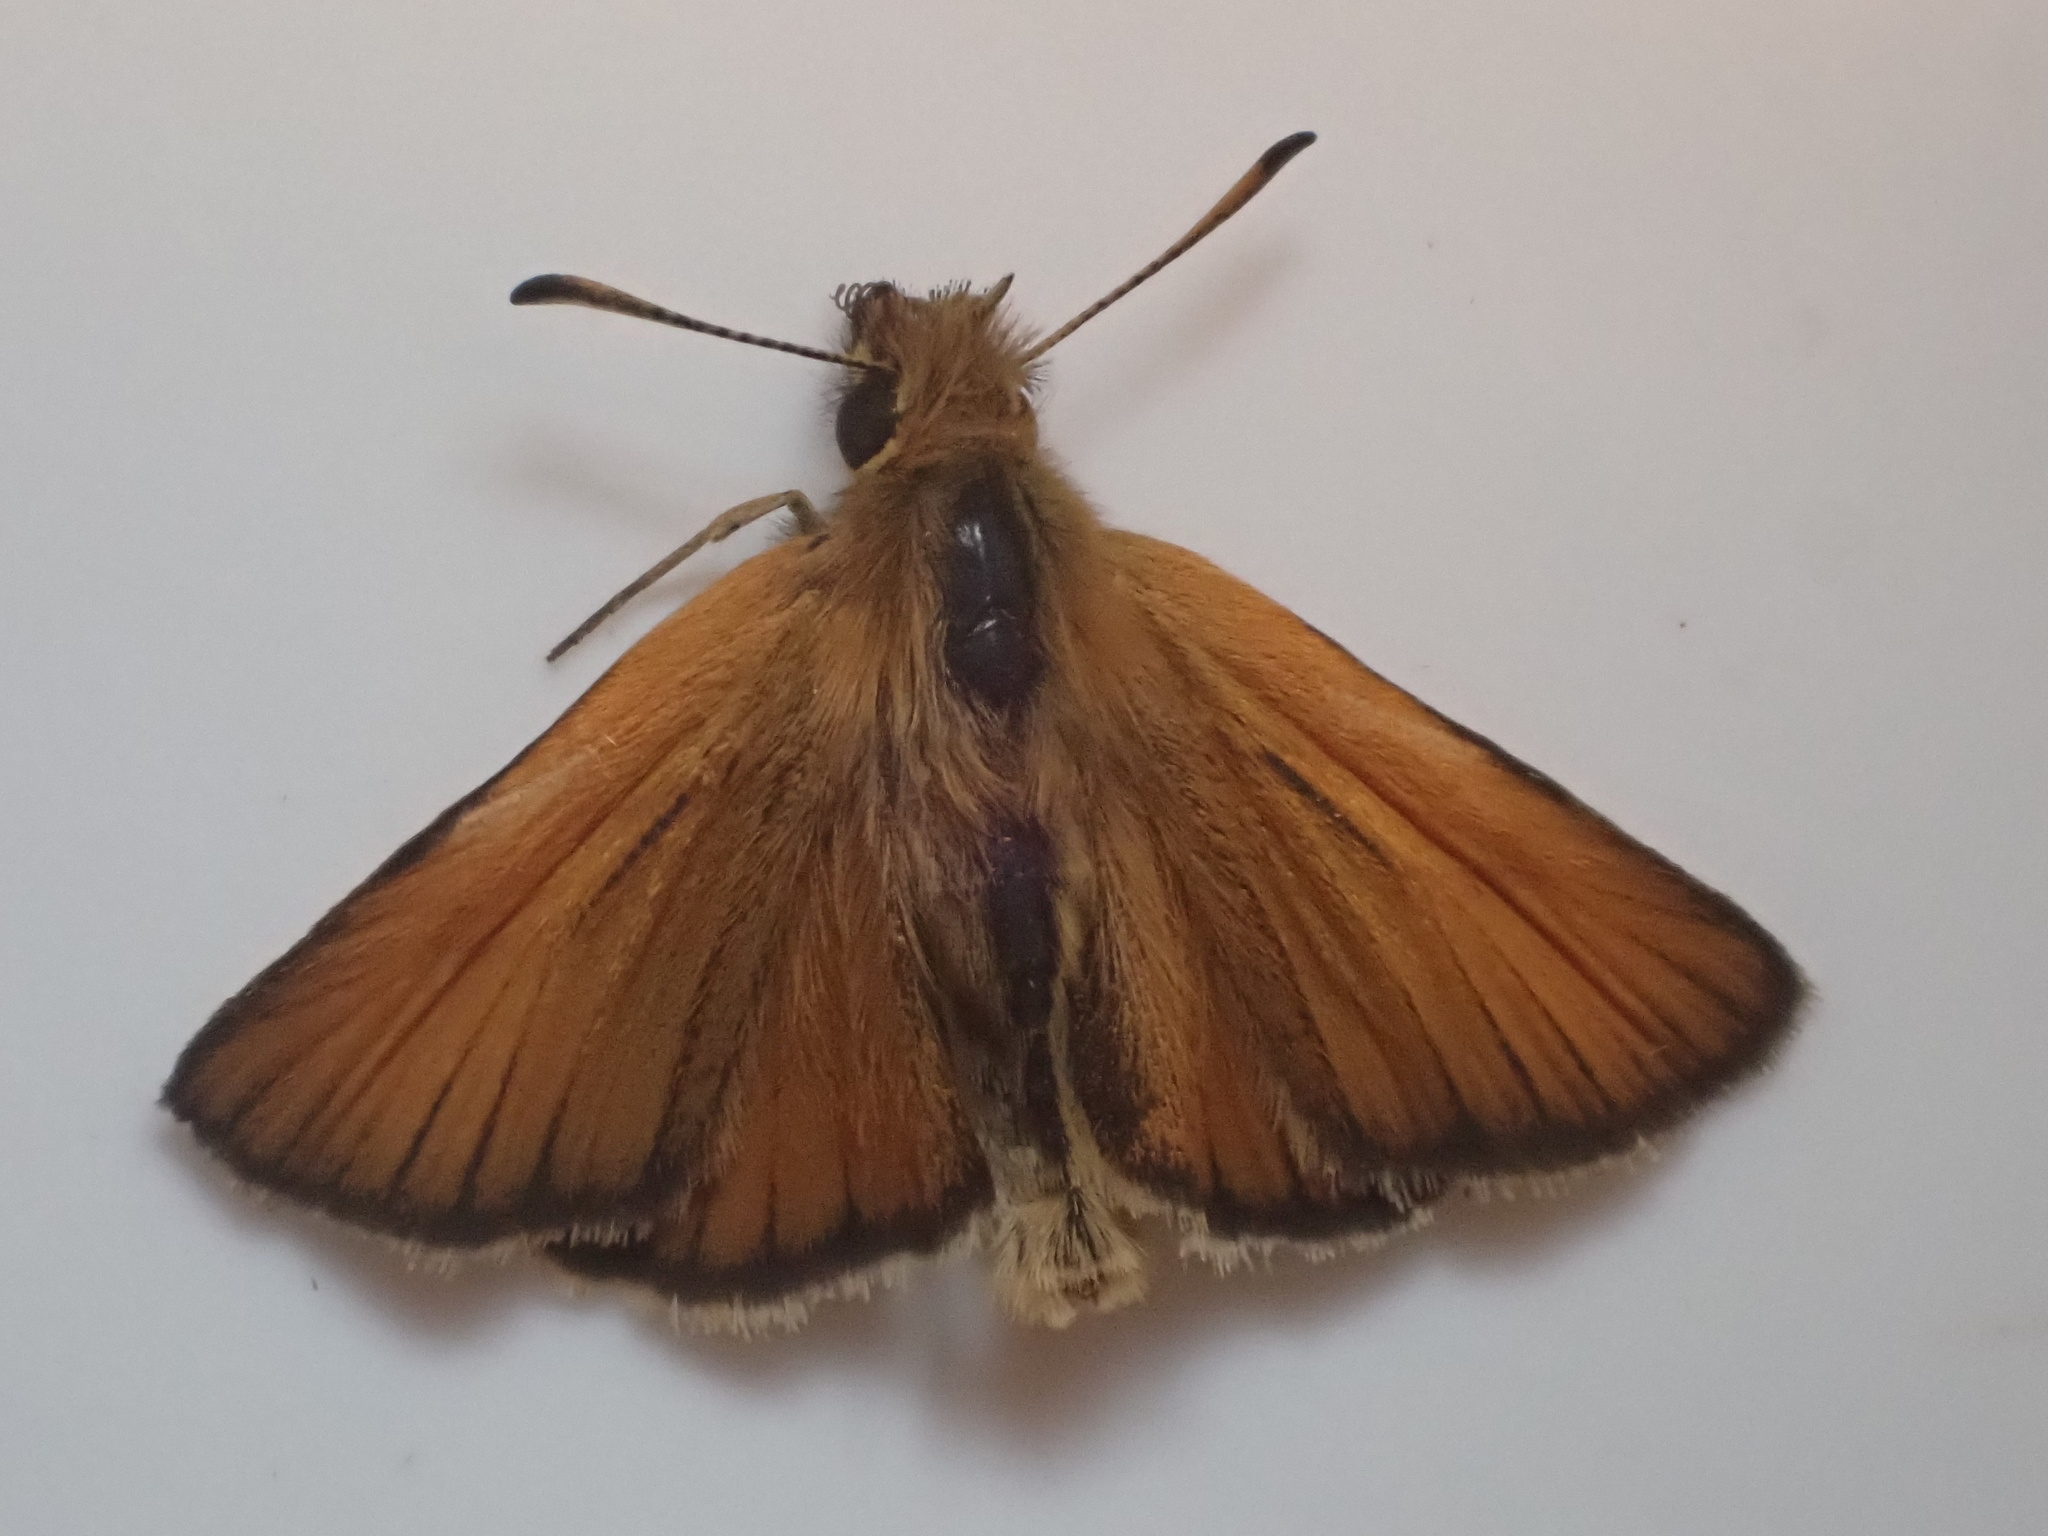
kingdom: Animalia
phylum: Arthropoda
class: Insecta
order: Lepidoptera
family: Hesperiidae
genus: Thymelicus
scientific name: Thymelicus lineola
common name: Essex skipper
